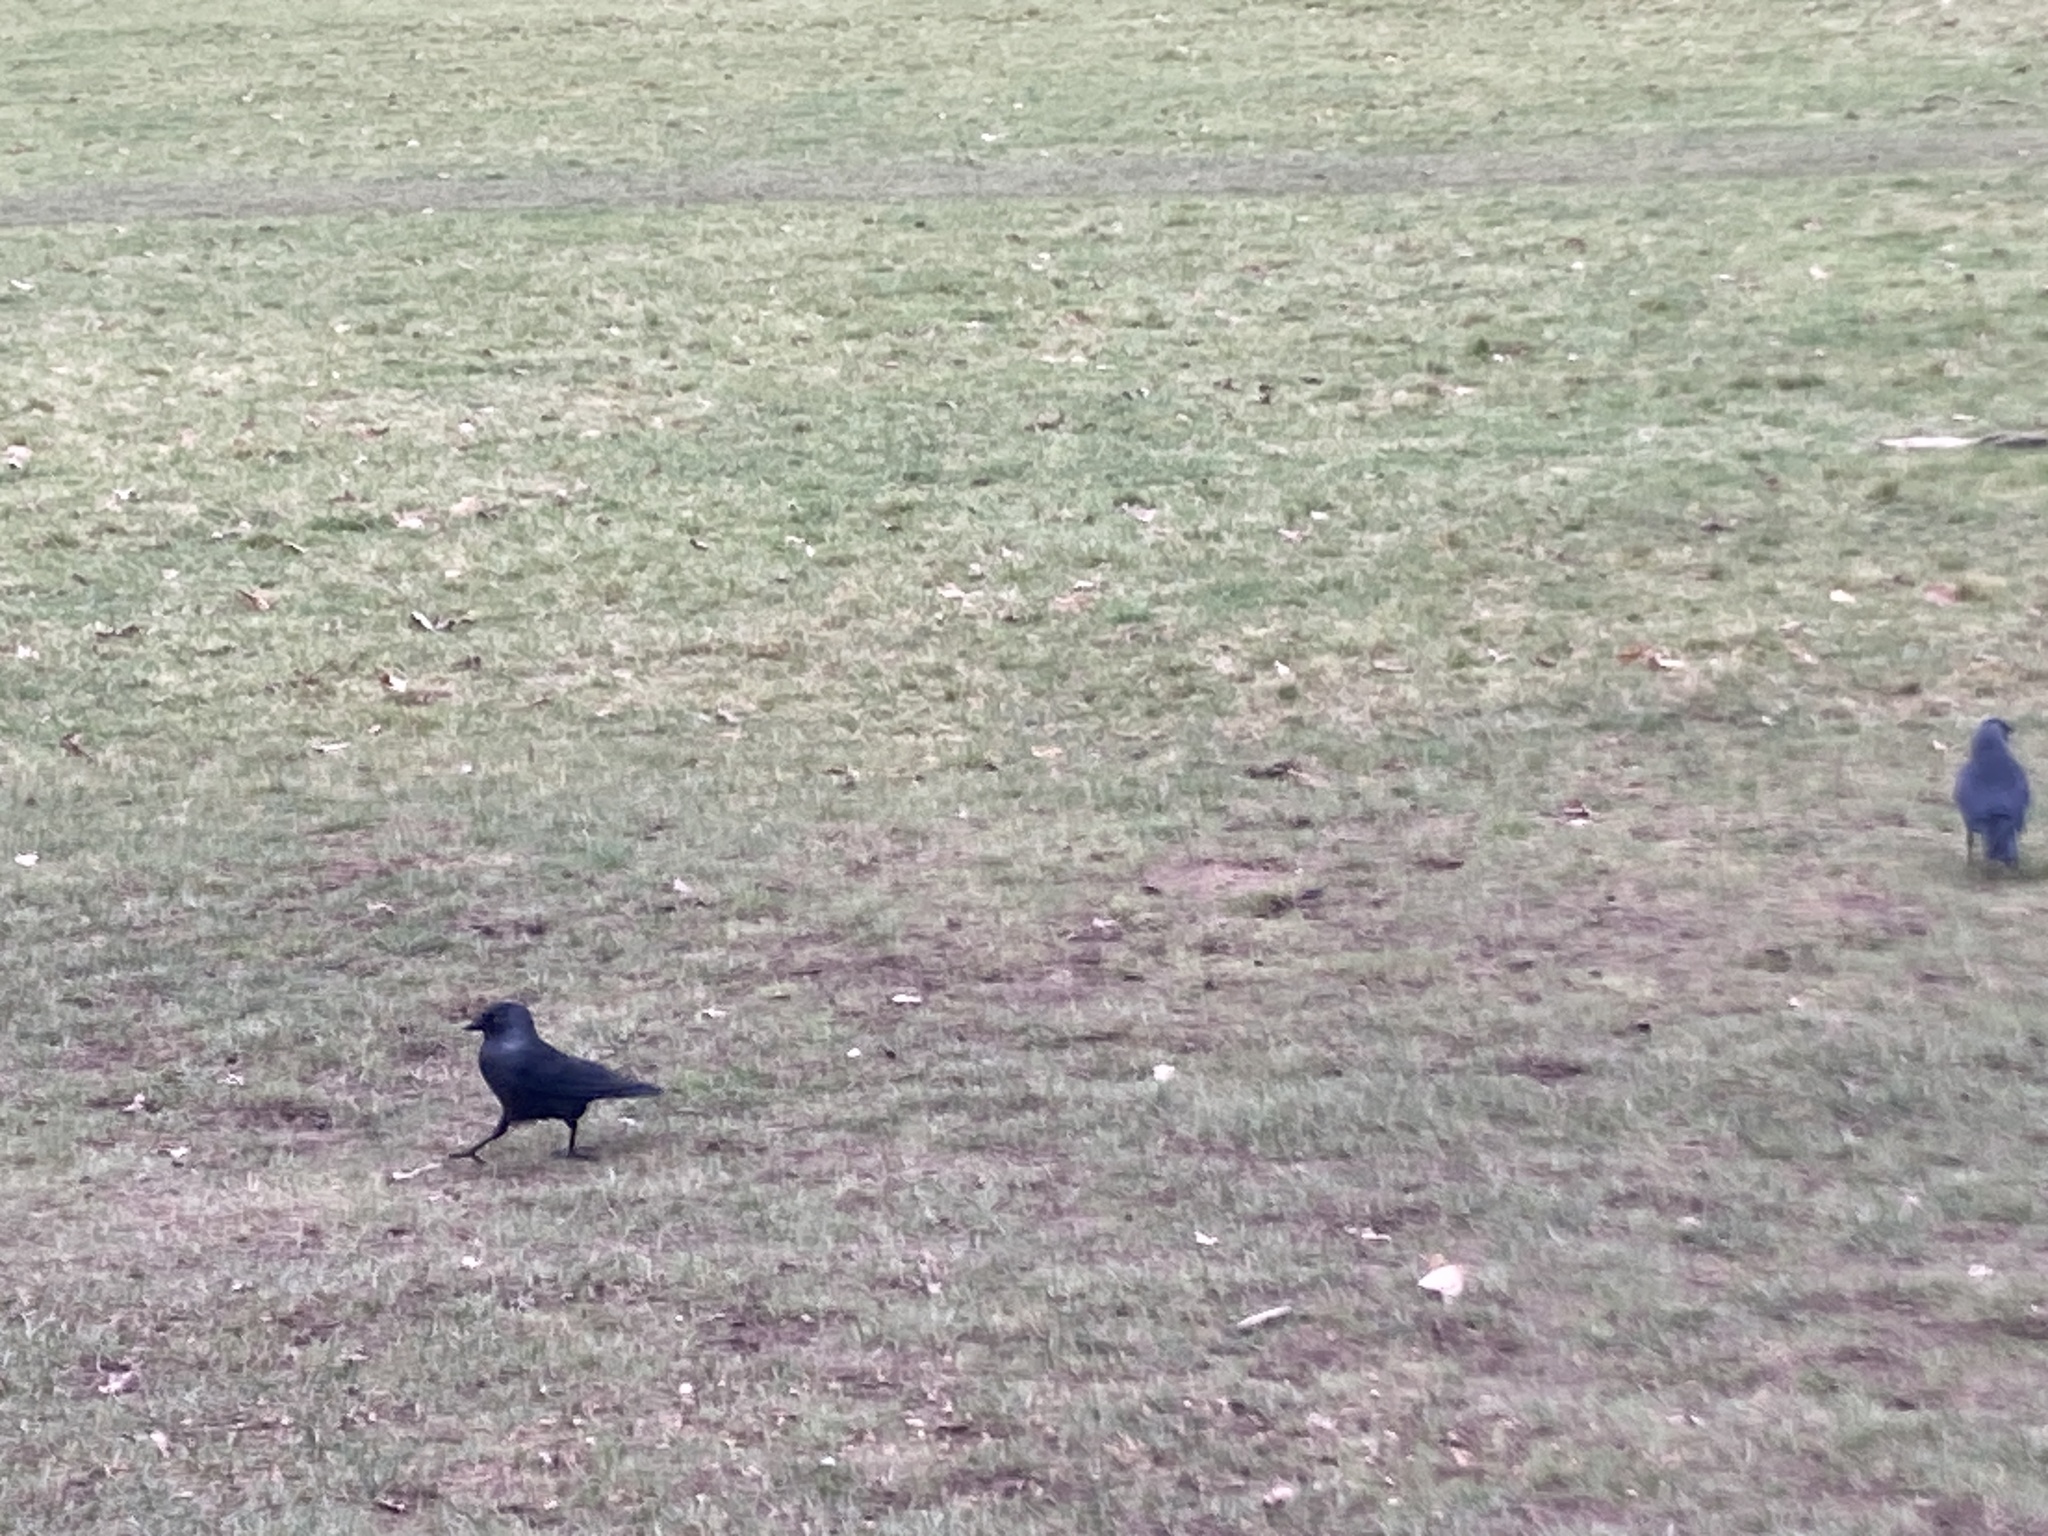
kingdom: Animalia
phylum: Chordata
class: Aves
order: Passeriformes
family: Corvidae
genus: Coloeus
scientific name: Coloeus monedula
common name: Western jackdaw
